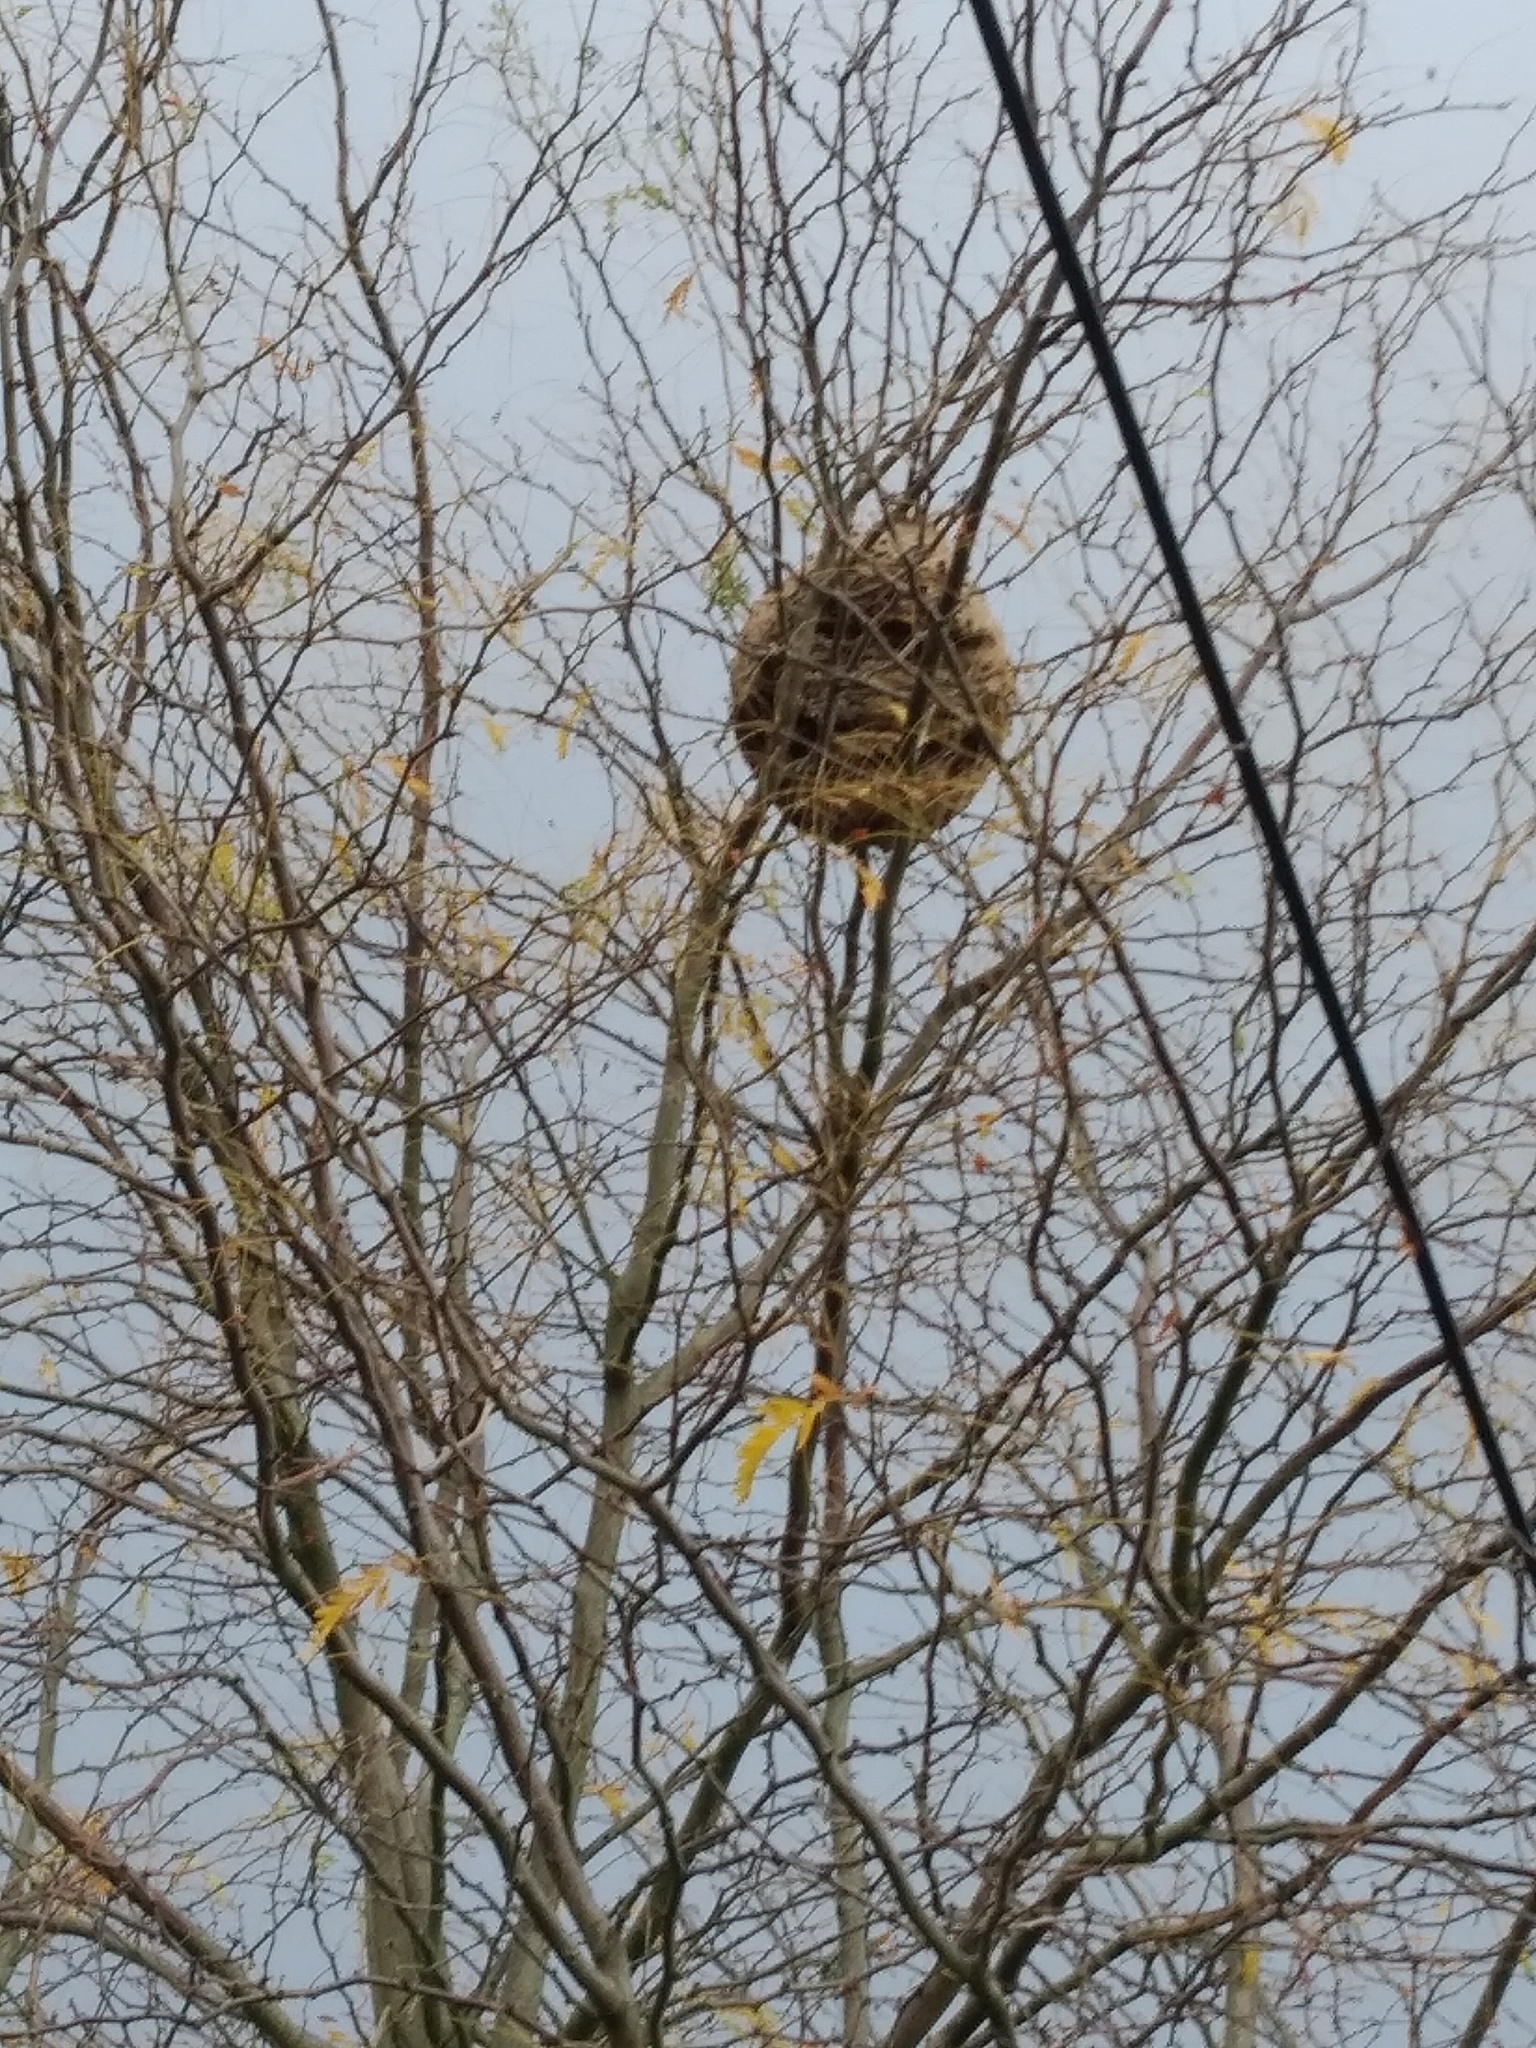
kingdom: Animalia
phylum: Arthropoda
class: Insecta
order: Hymenoptera
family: Vespidae
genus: Vespa
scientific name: Vespa velutina
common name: Asian hornet
